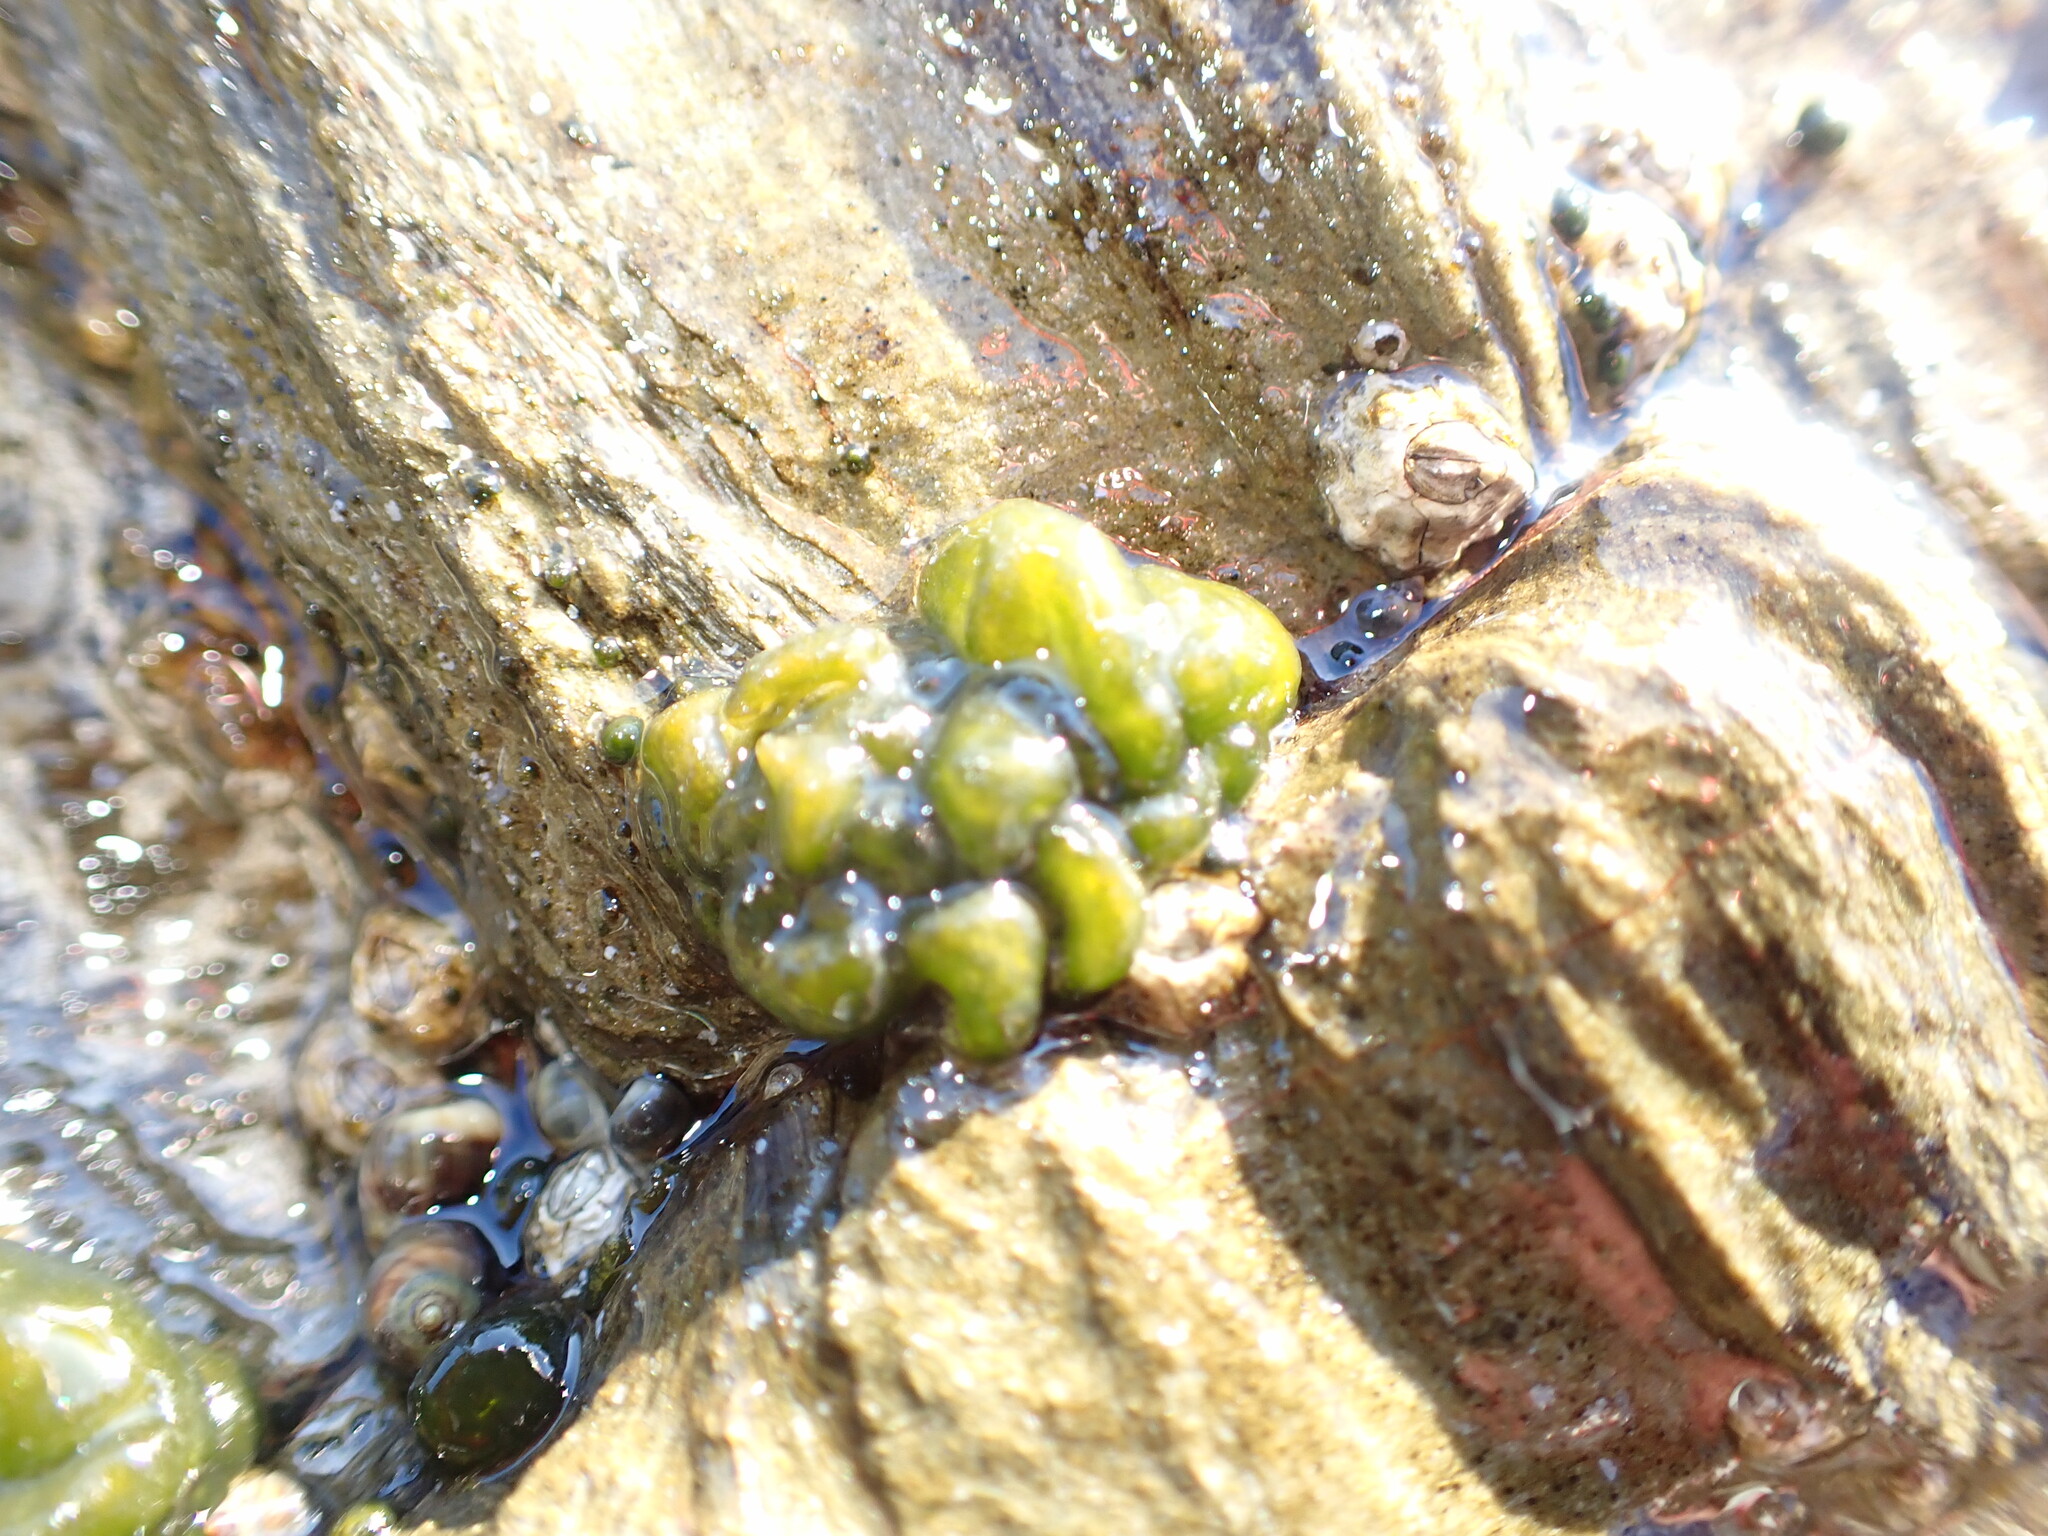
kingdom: Bacteria
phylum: Cyanobacteria
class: Cyanobacteriia
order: Cyanobacteriales
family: Nostocaceae
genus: Rivularia
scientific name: Rivularia bullata
